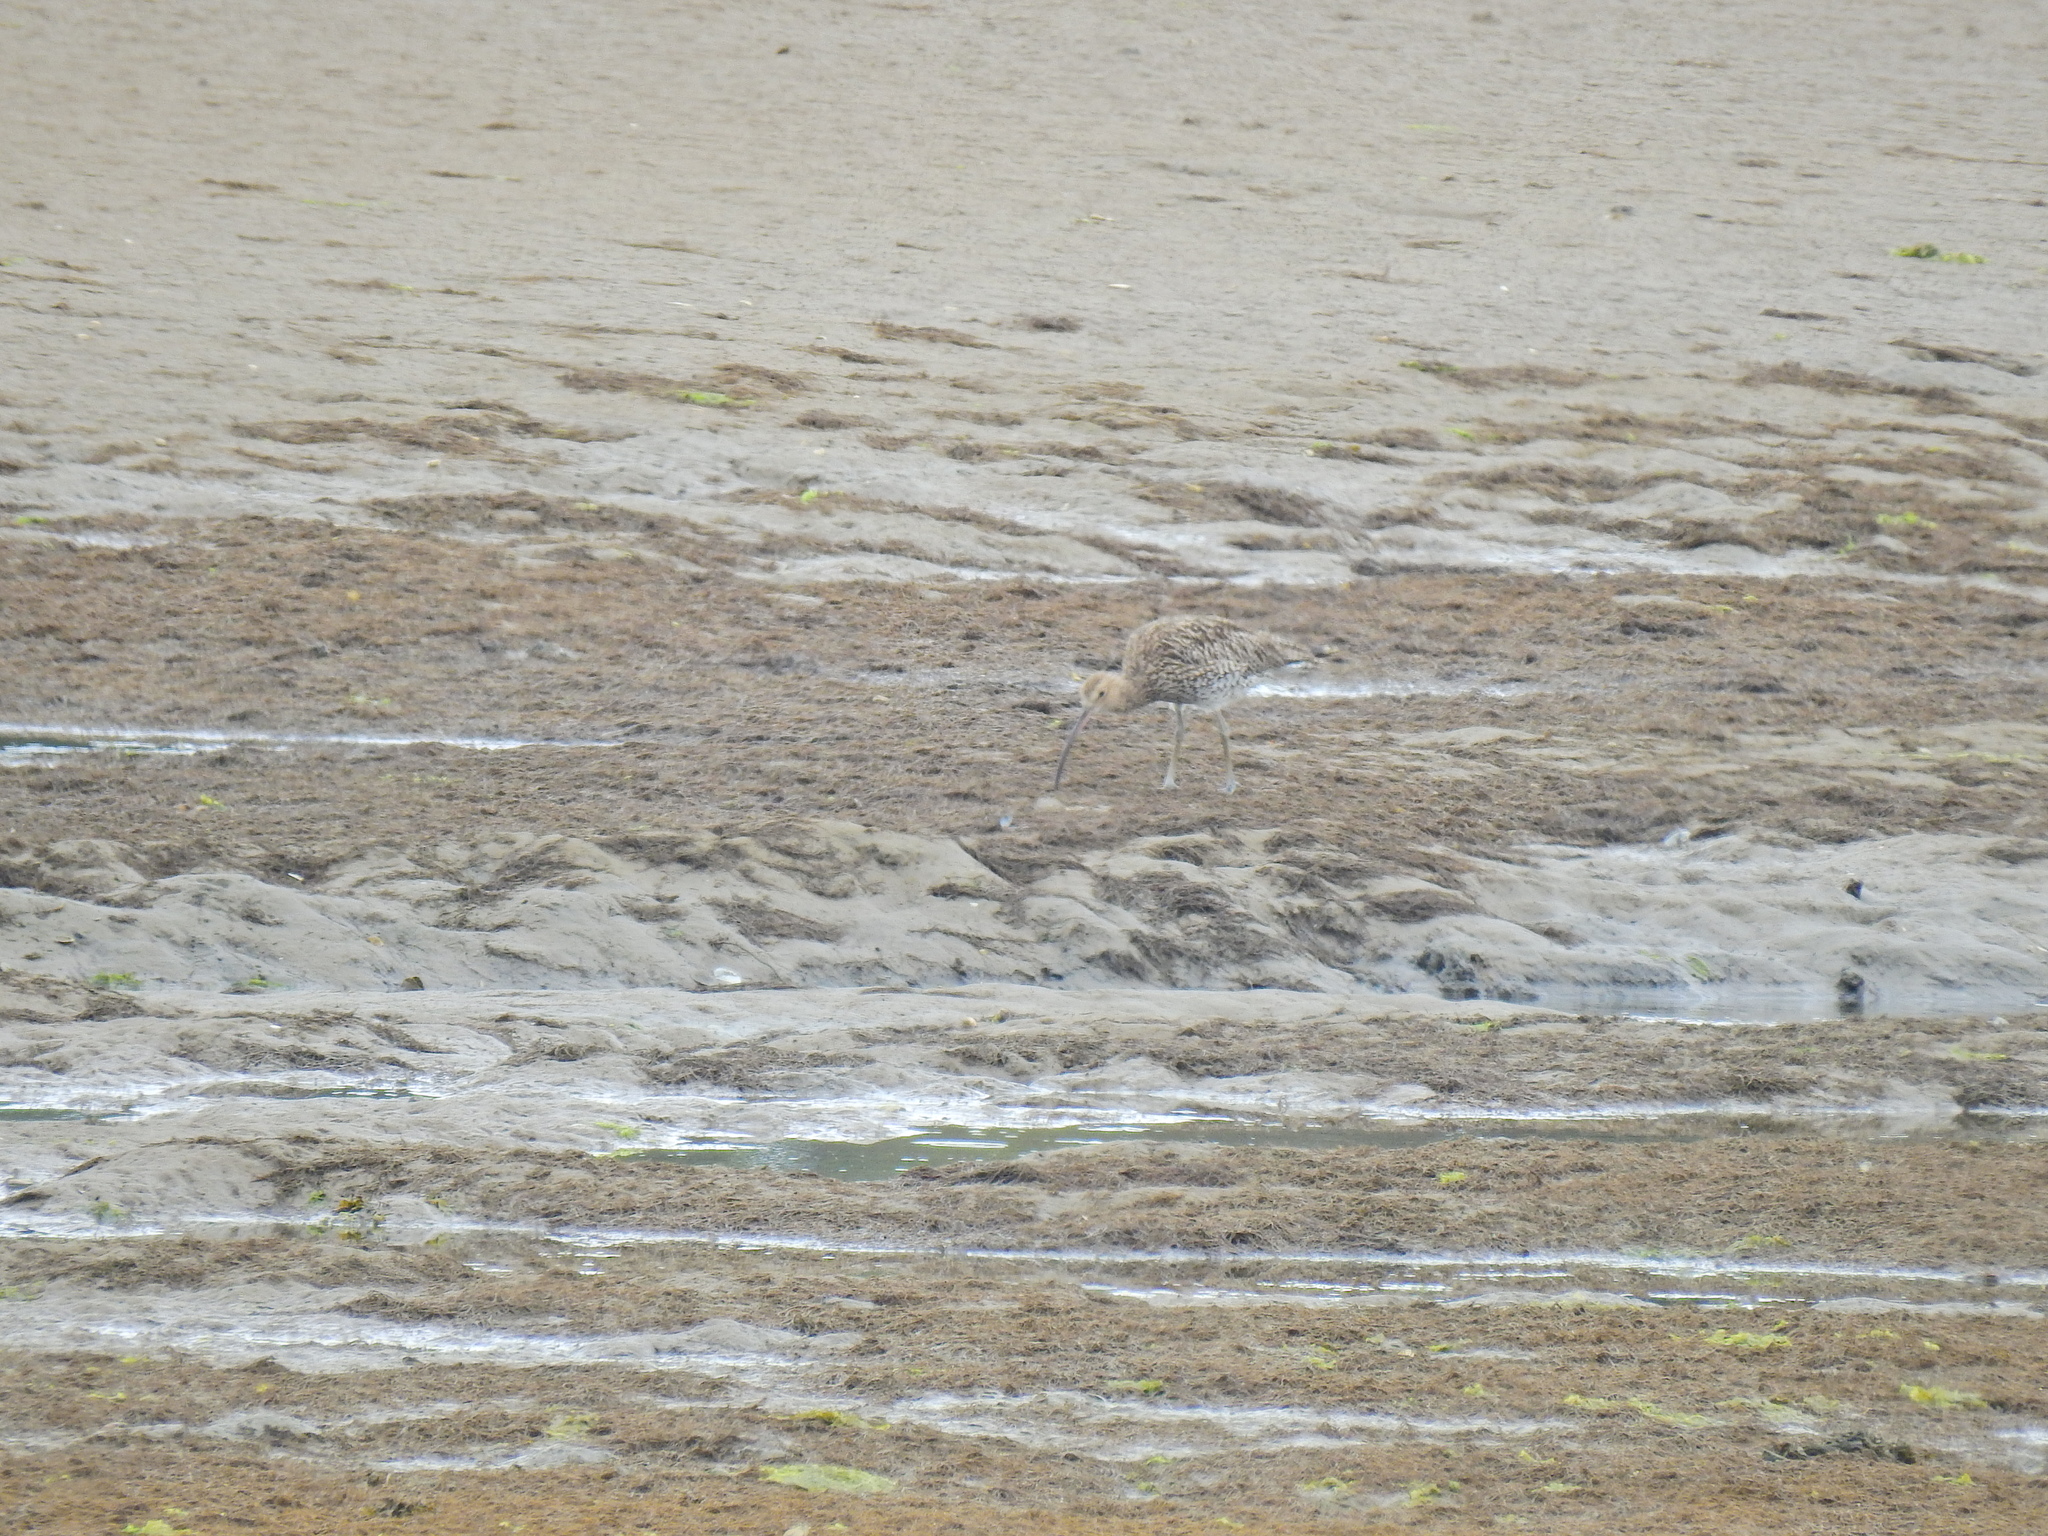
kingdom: Animalia
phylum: Chordata
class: Aves
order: Charadriiformes
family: Scolopacidae
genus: Numenius
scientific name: Numenius arquata
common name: Eurasian curlew
